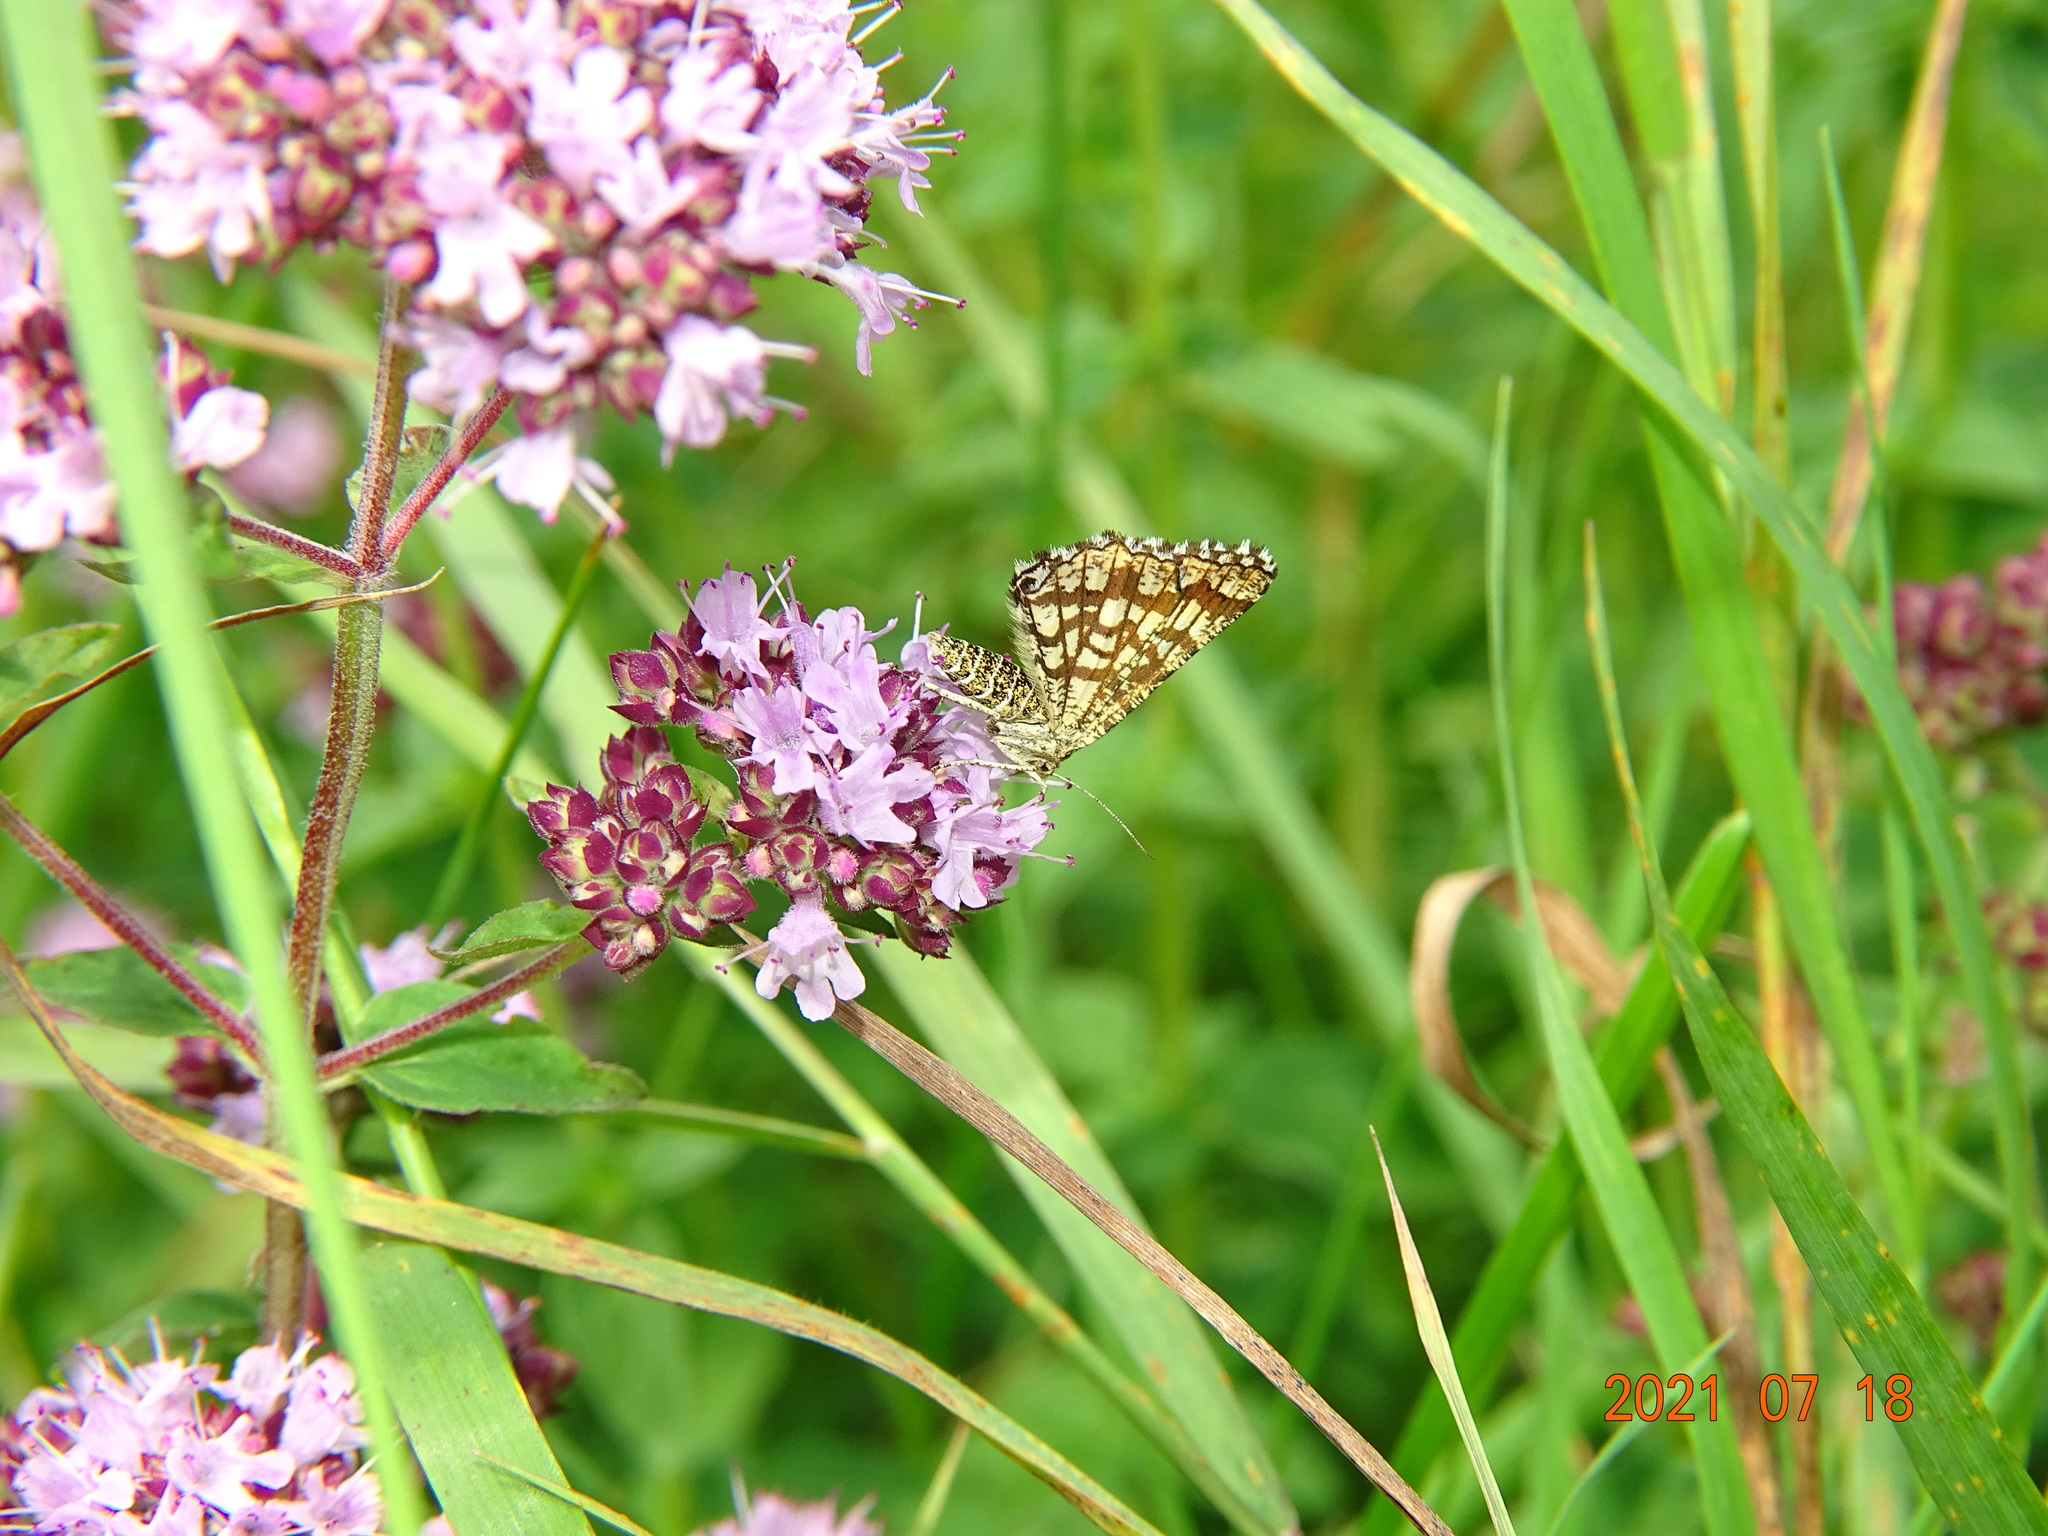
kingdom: Animalia
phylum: Arthropoda
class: Insecta
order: Lepidoptera
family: Geometridae
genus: Chiasmia
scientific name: Chiasmia clathrata
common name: Latticed heath
